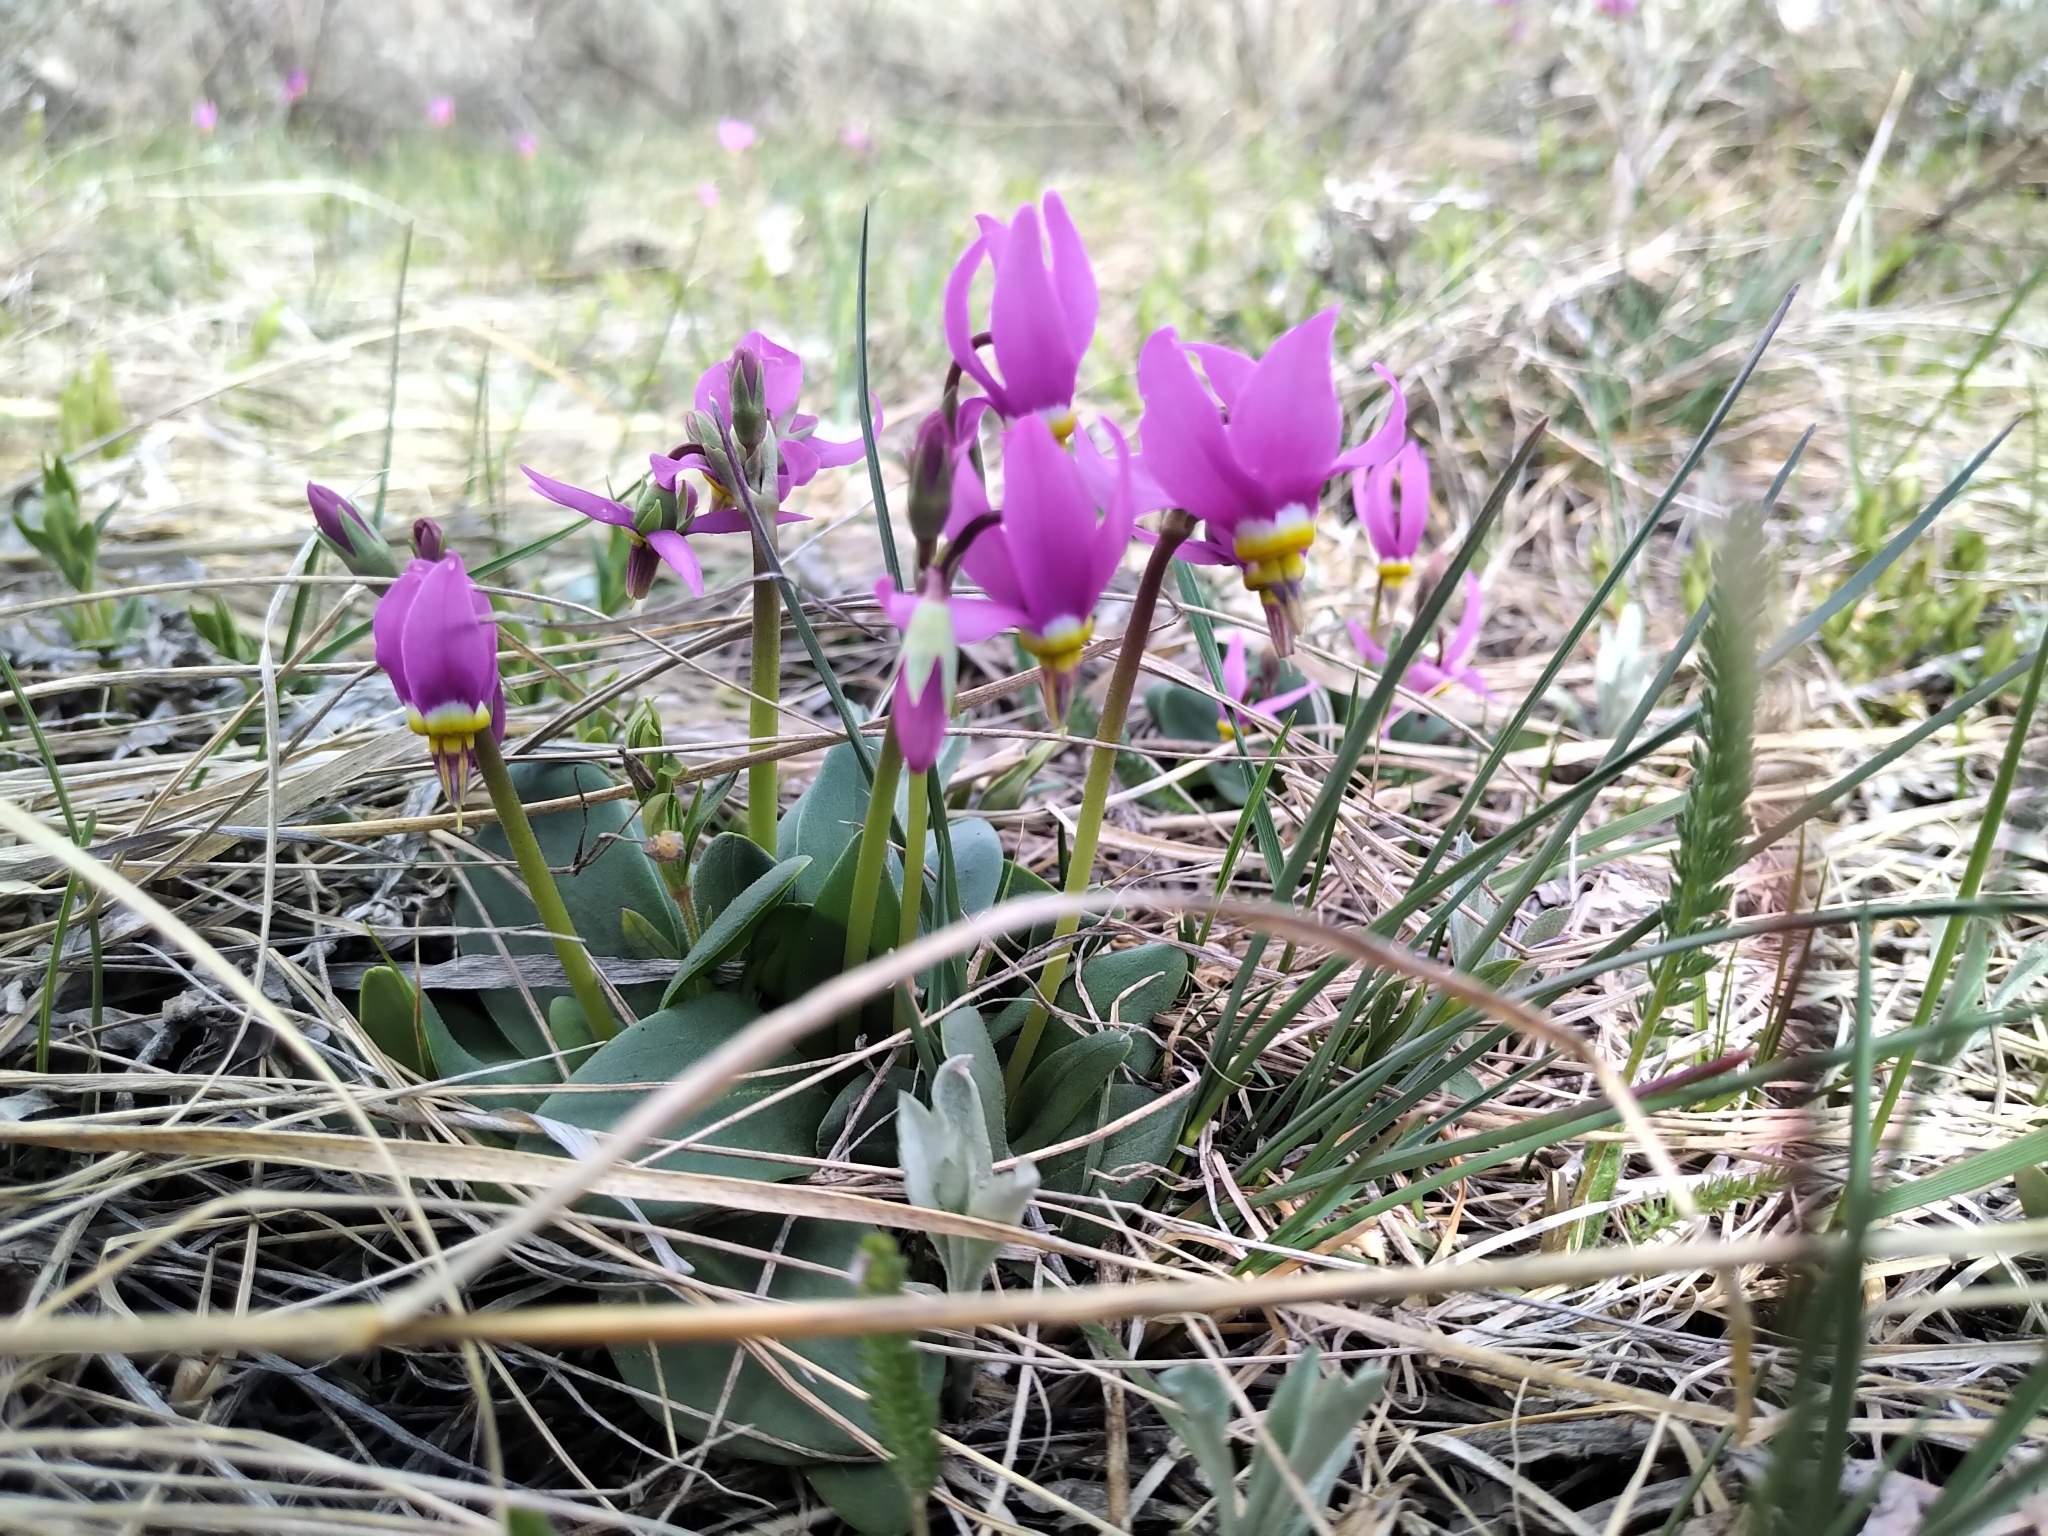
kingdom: Plantae
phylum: Tracheophyta
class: Magnoliopsida
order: Ericales
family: Primulaceae
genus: Dodecatheon
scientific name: Dodecatheon conjugens
